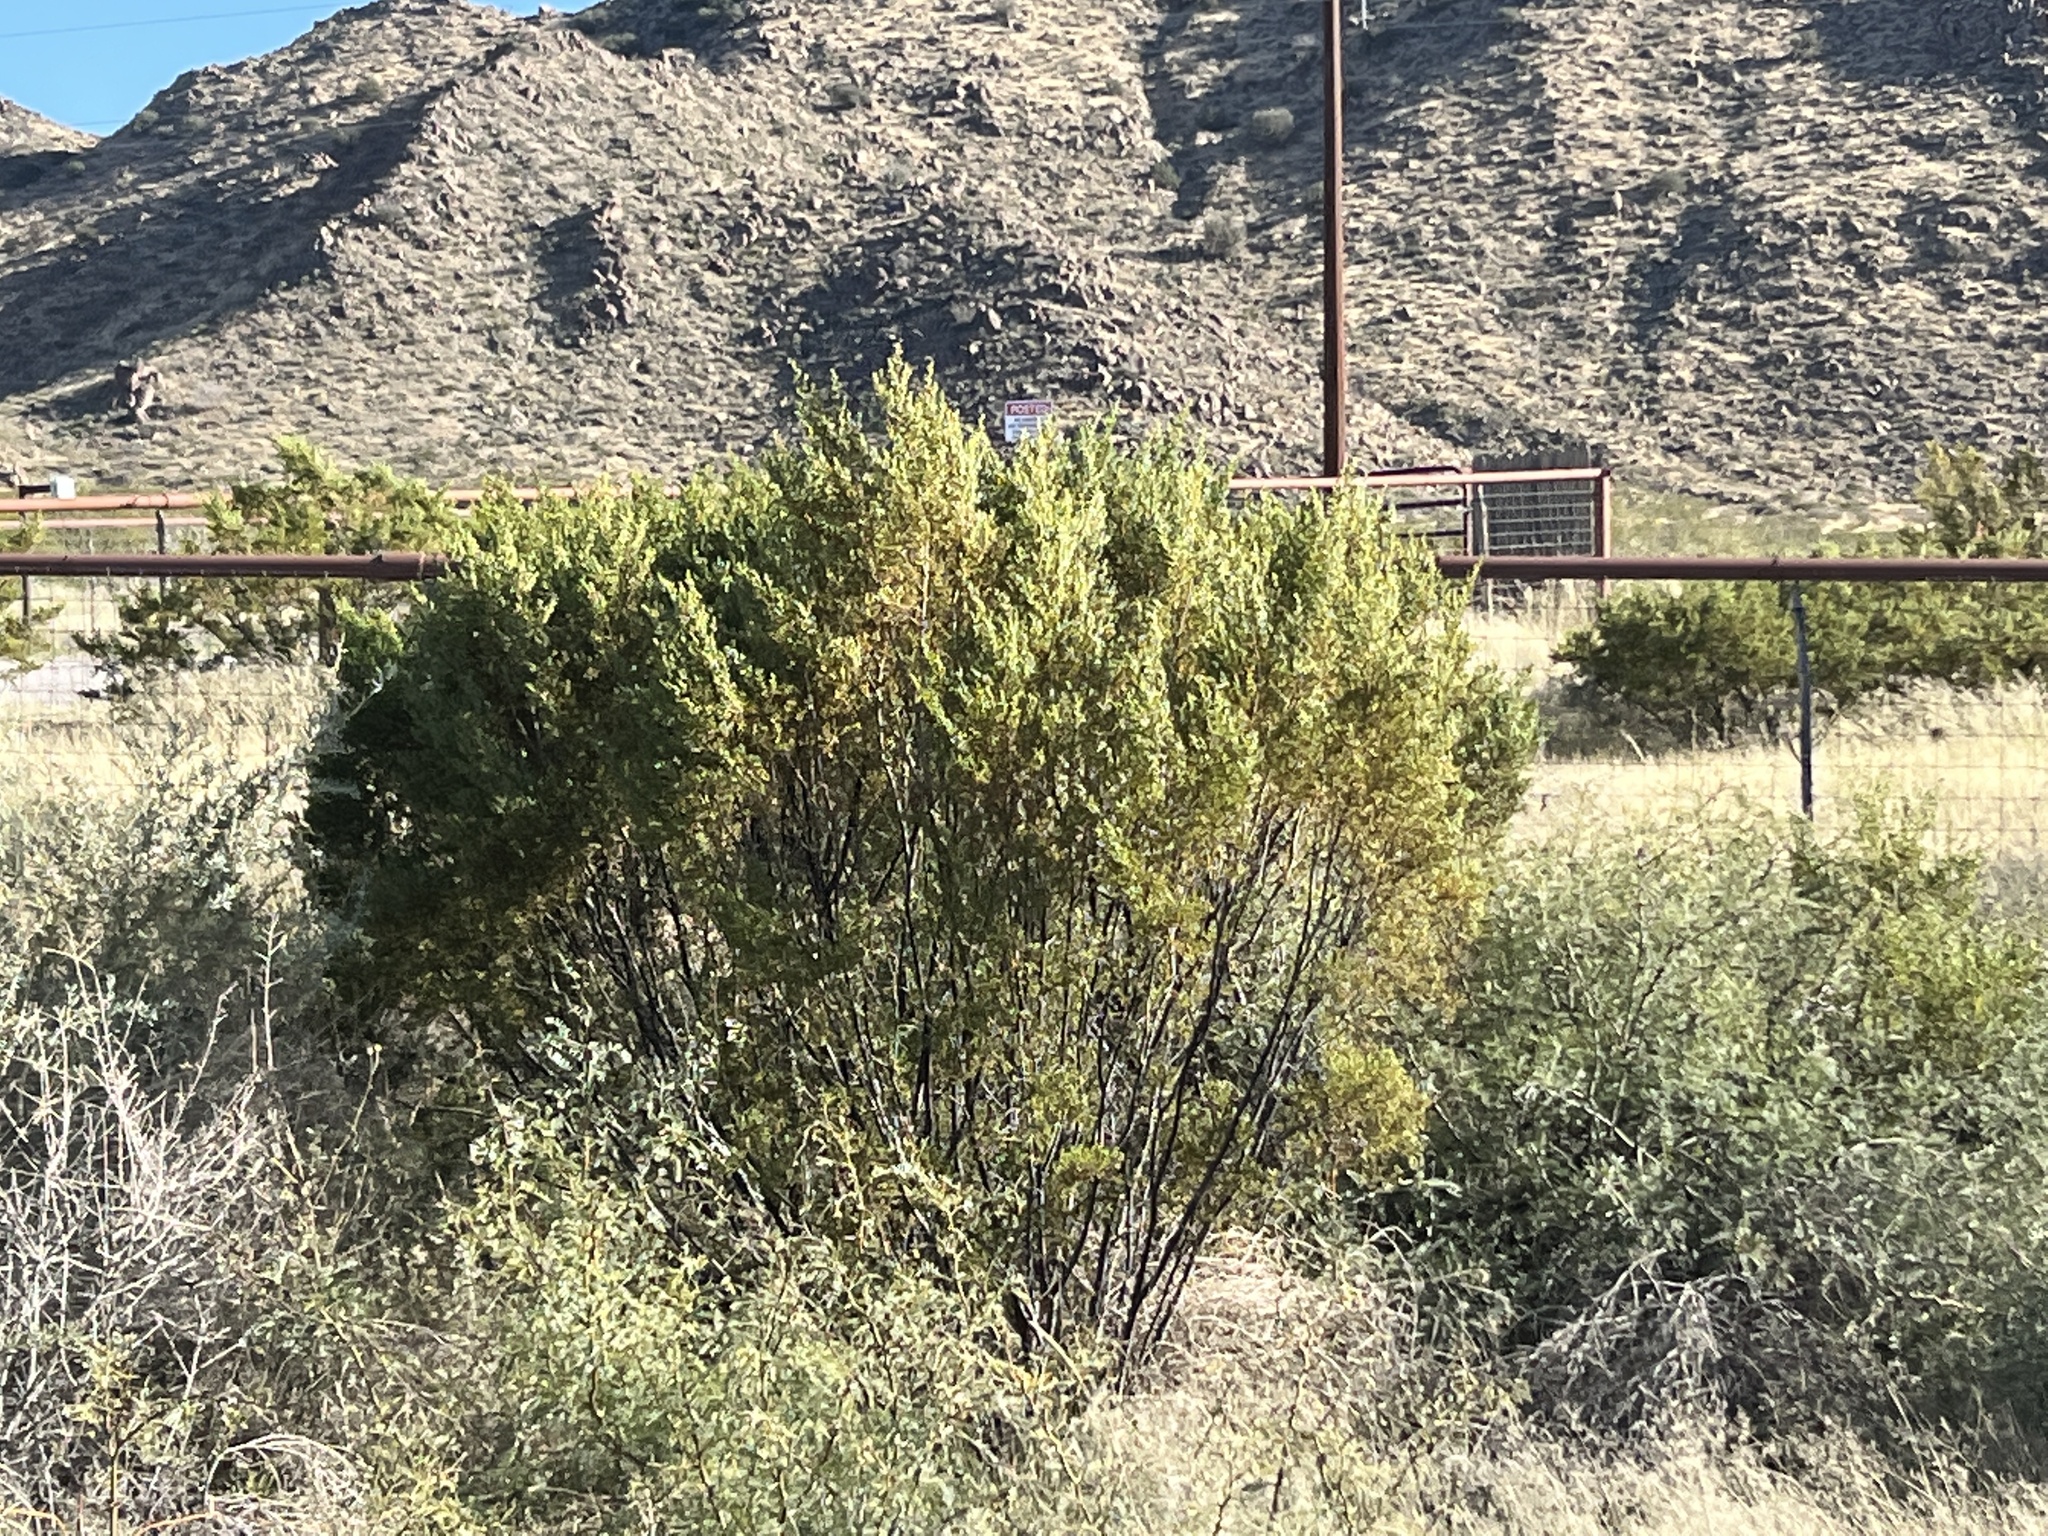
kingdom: Plantae
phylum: Tracheophyta
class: Magnoliopsida
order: Zygophyllales
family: Zygophyllaceae
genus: Larrea
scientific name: Larrea tridentata
